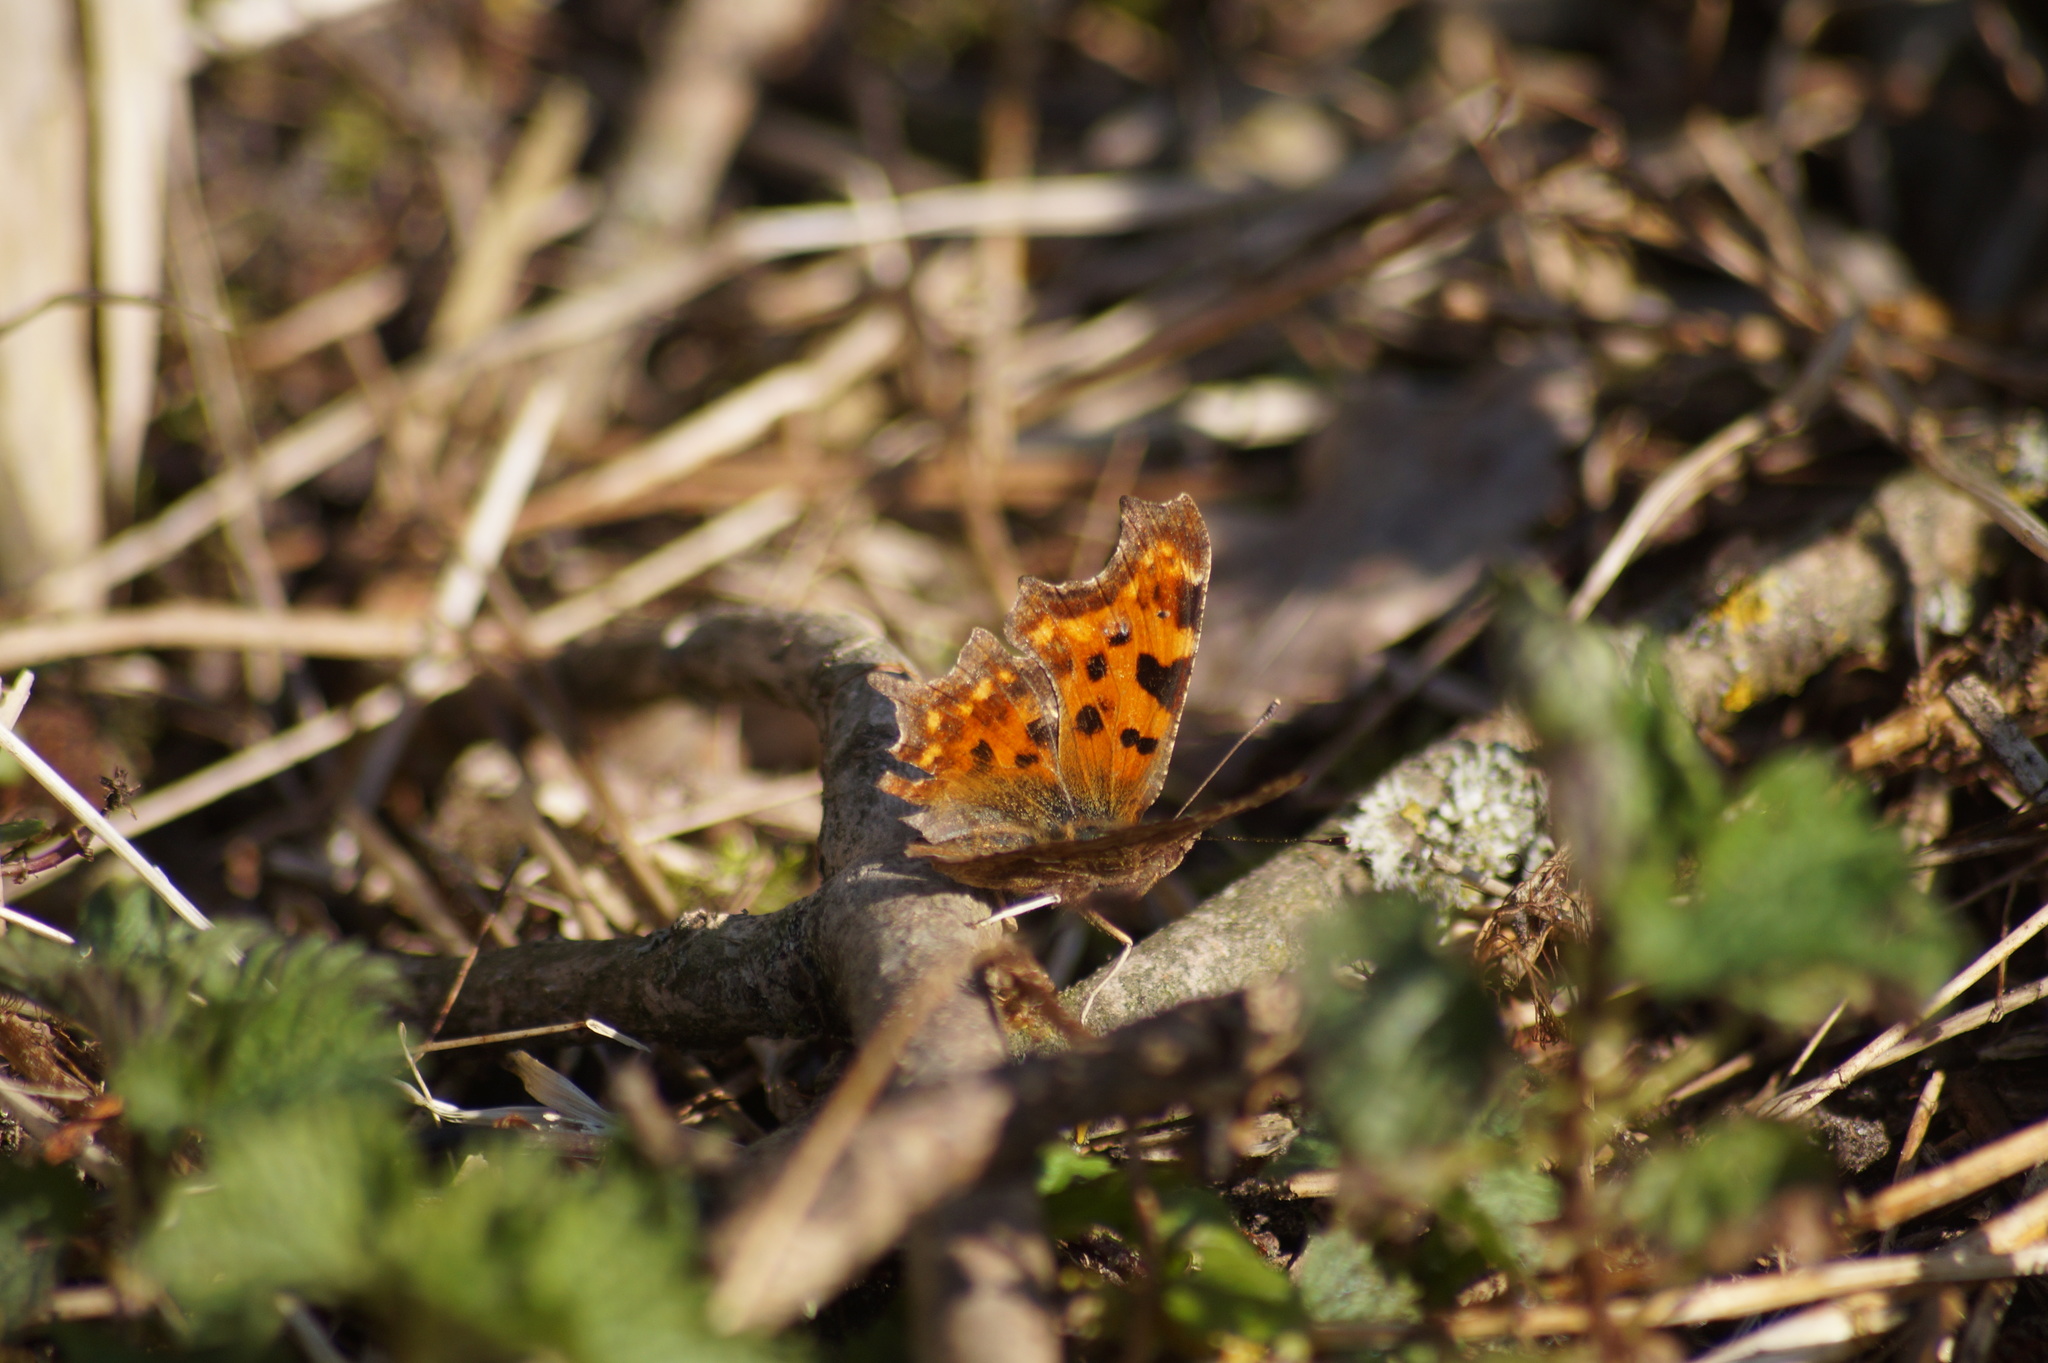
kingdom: Animalia
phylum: Arthropoda
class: Insecta
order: Lepidoptera
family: Nymphalidae
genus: Polygonia
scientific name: Polygonia c-album
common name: Comma
